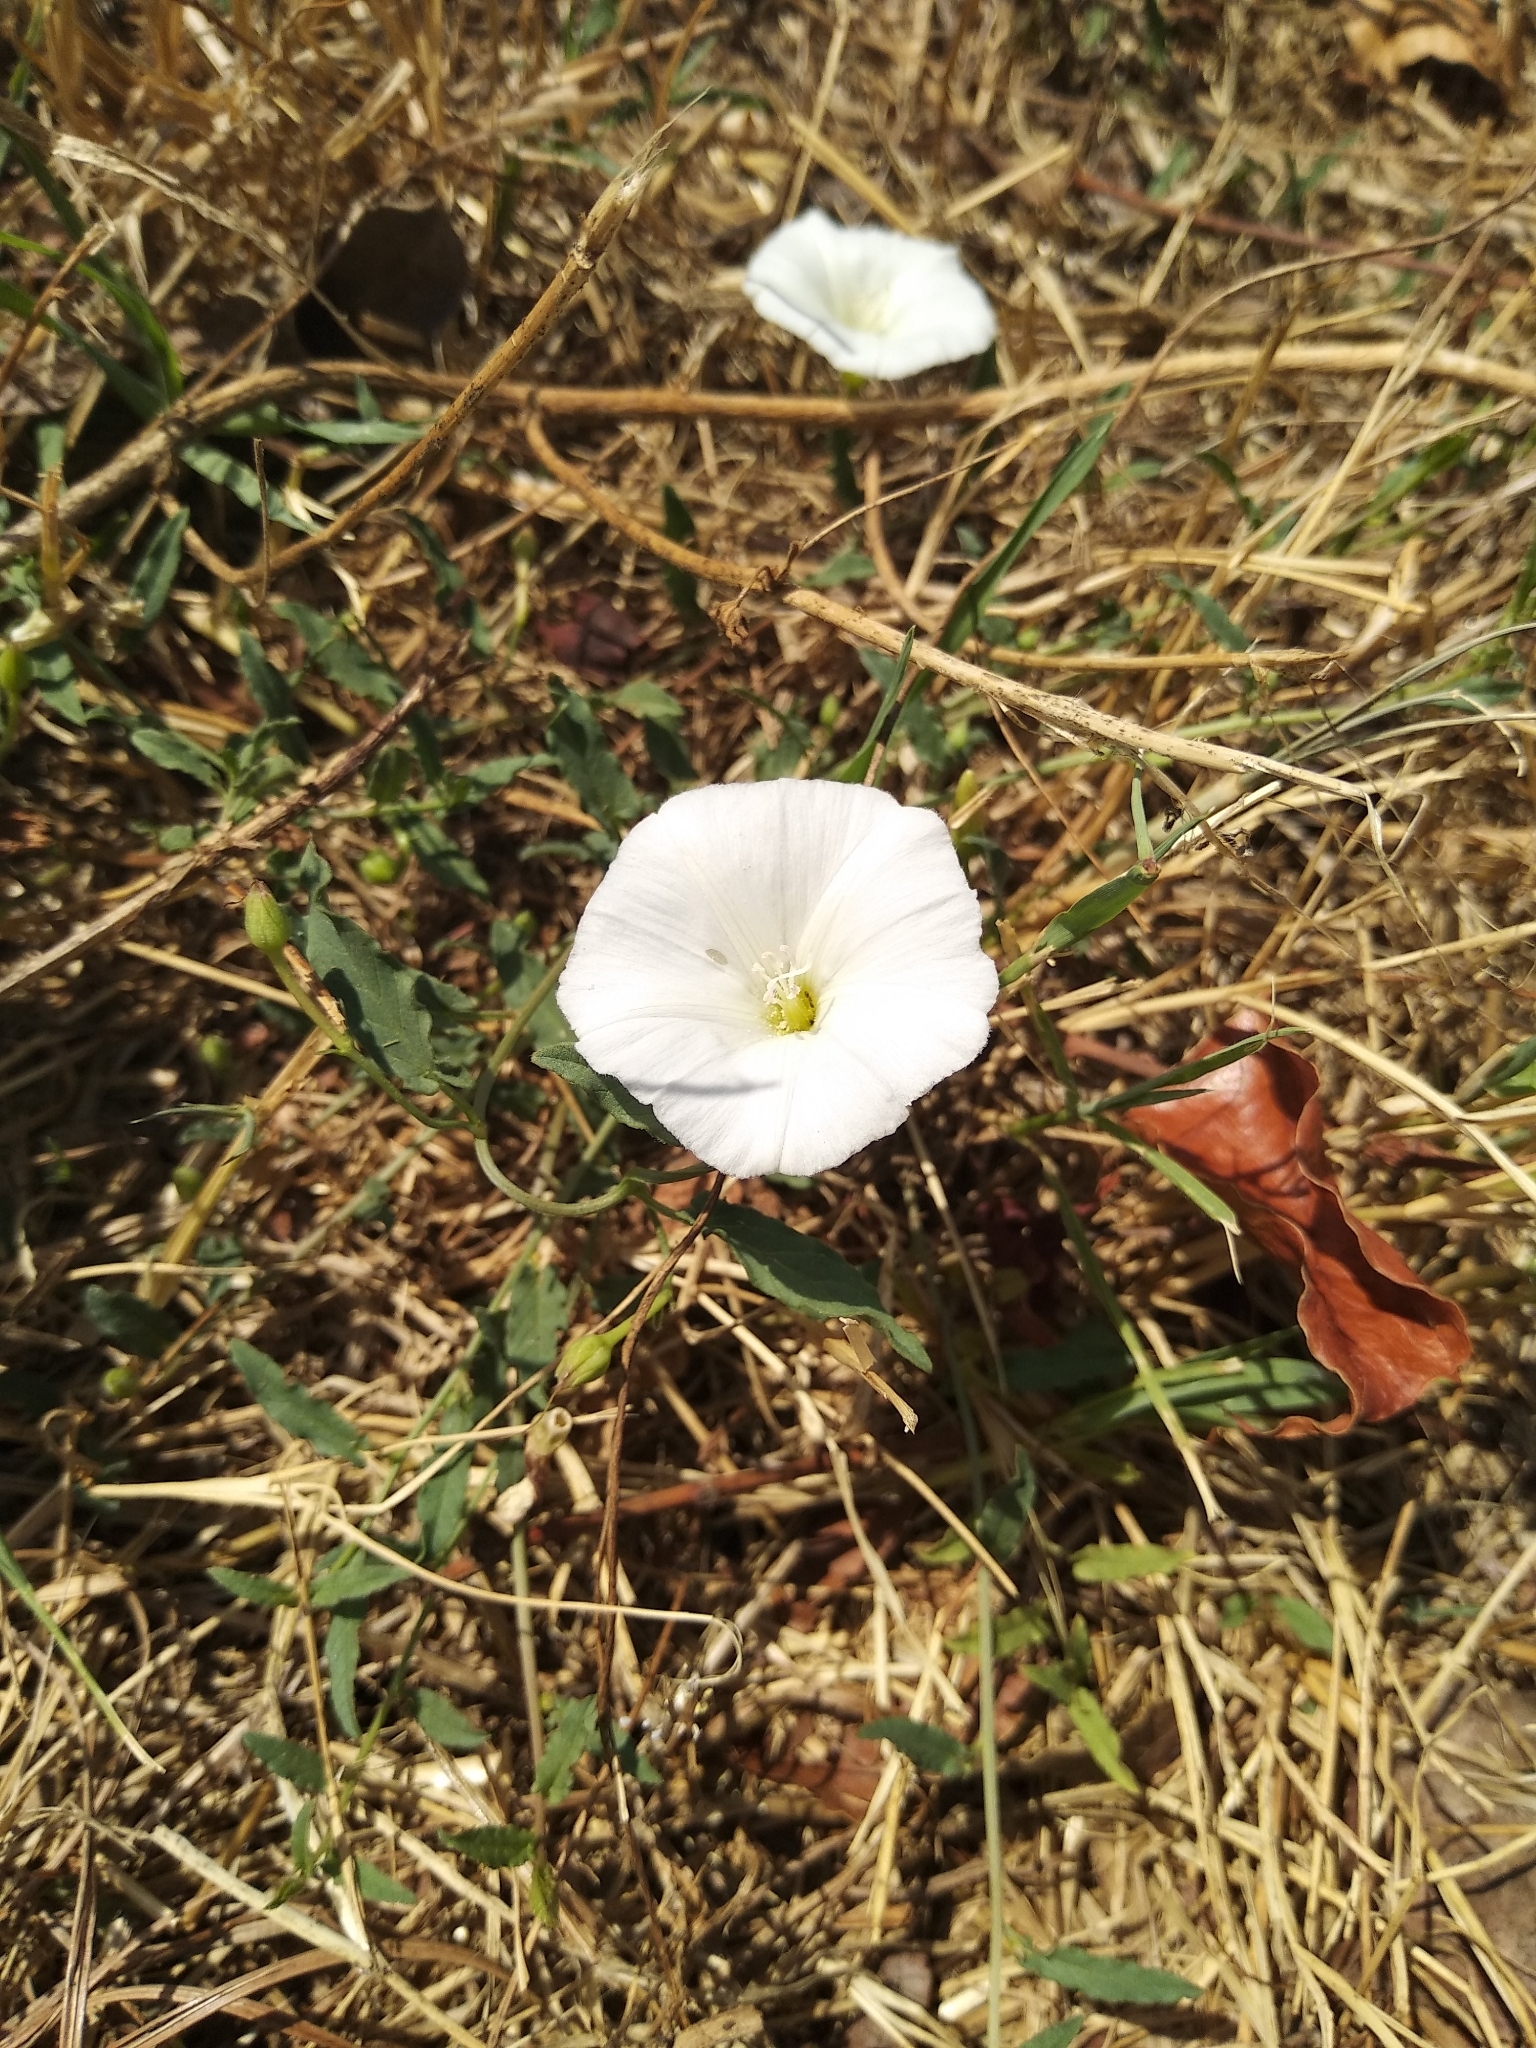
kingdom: Plantae
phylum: Tracheophyta
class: Magnoliopsida
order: Solanales
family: Convolvulaceae
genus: Convolvulus
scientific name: Convolvulus arvensis
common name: Field bindweed
